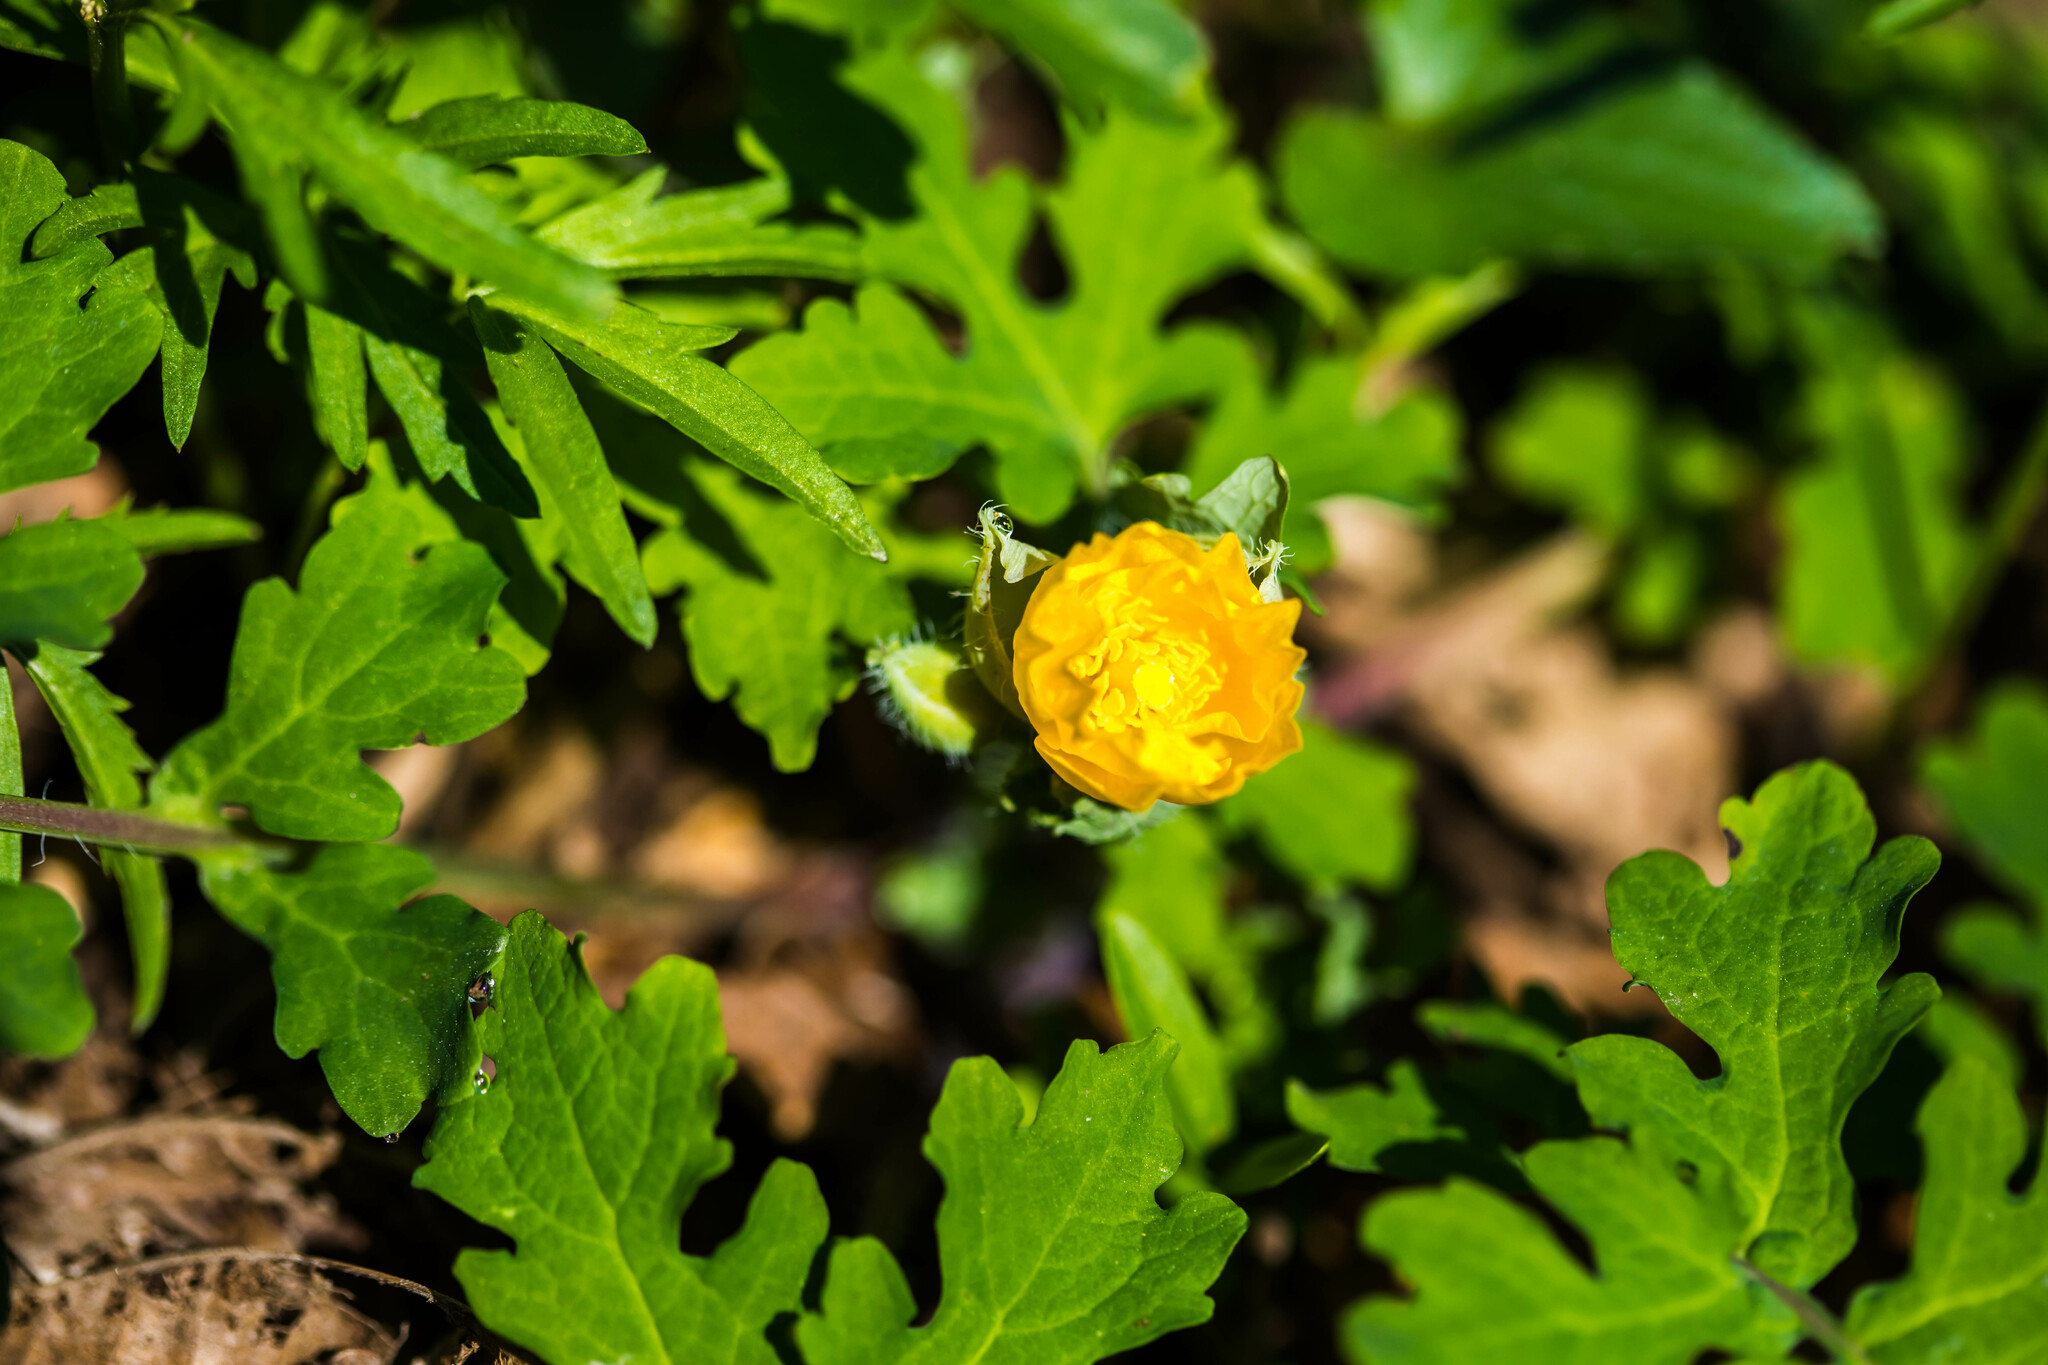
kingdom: Plantae
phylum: Tracheophyta
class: Magnoliopsida
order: Ranunculales
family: Papaveraceae
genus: Stylophorum
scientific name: Stylophorum diphyllum
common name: Celandine poppy
